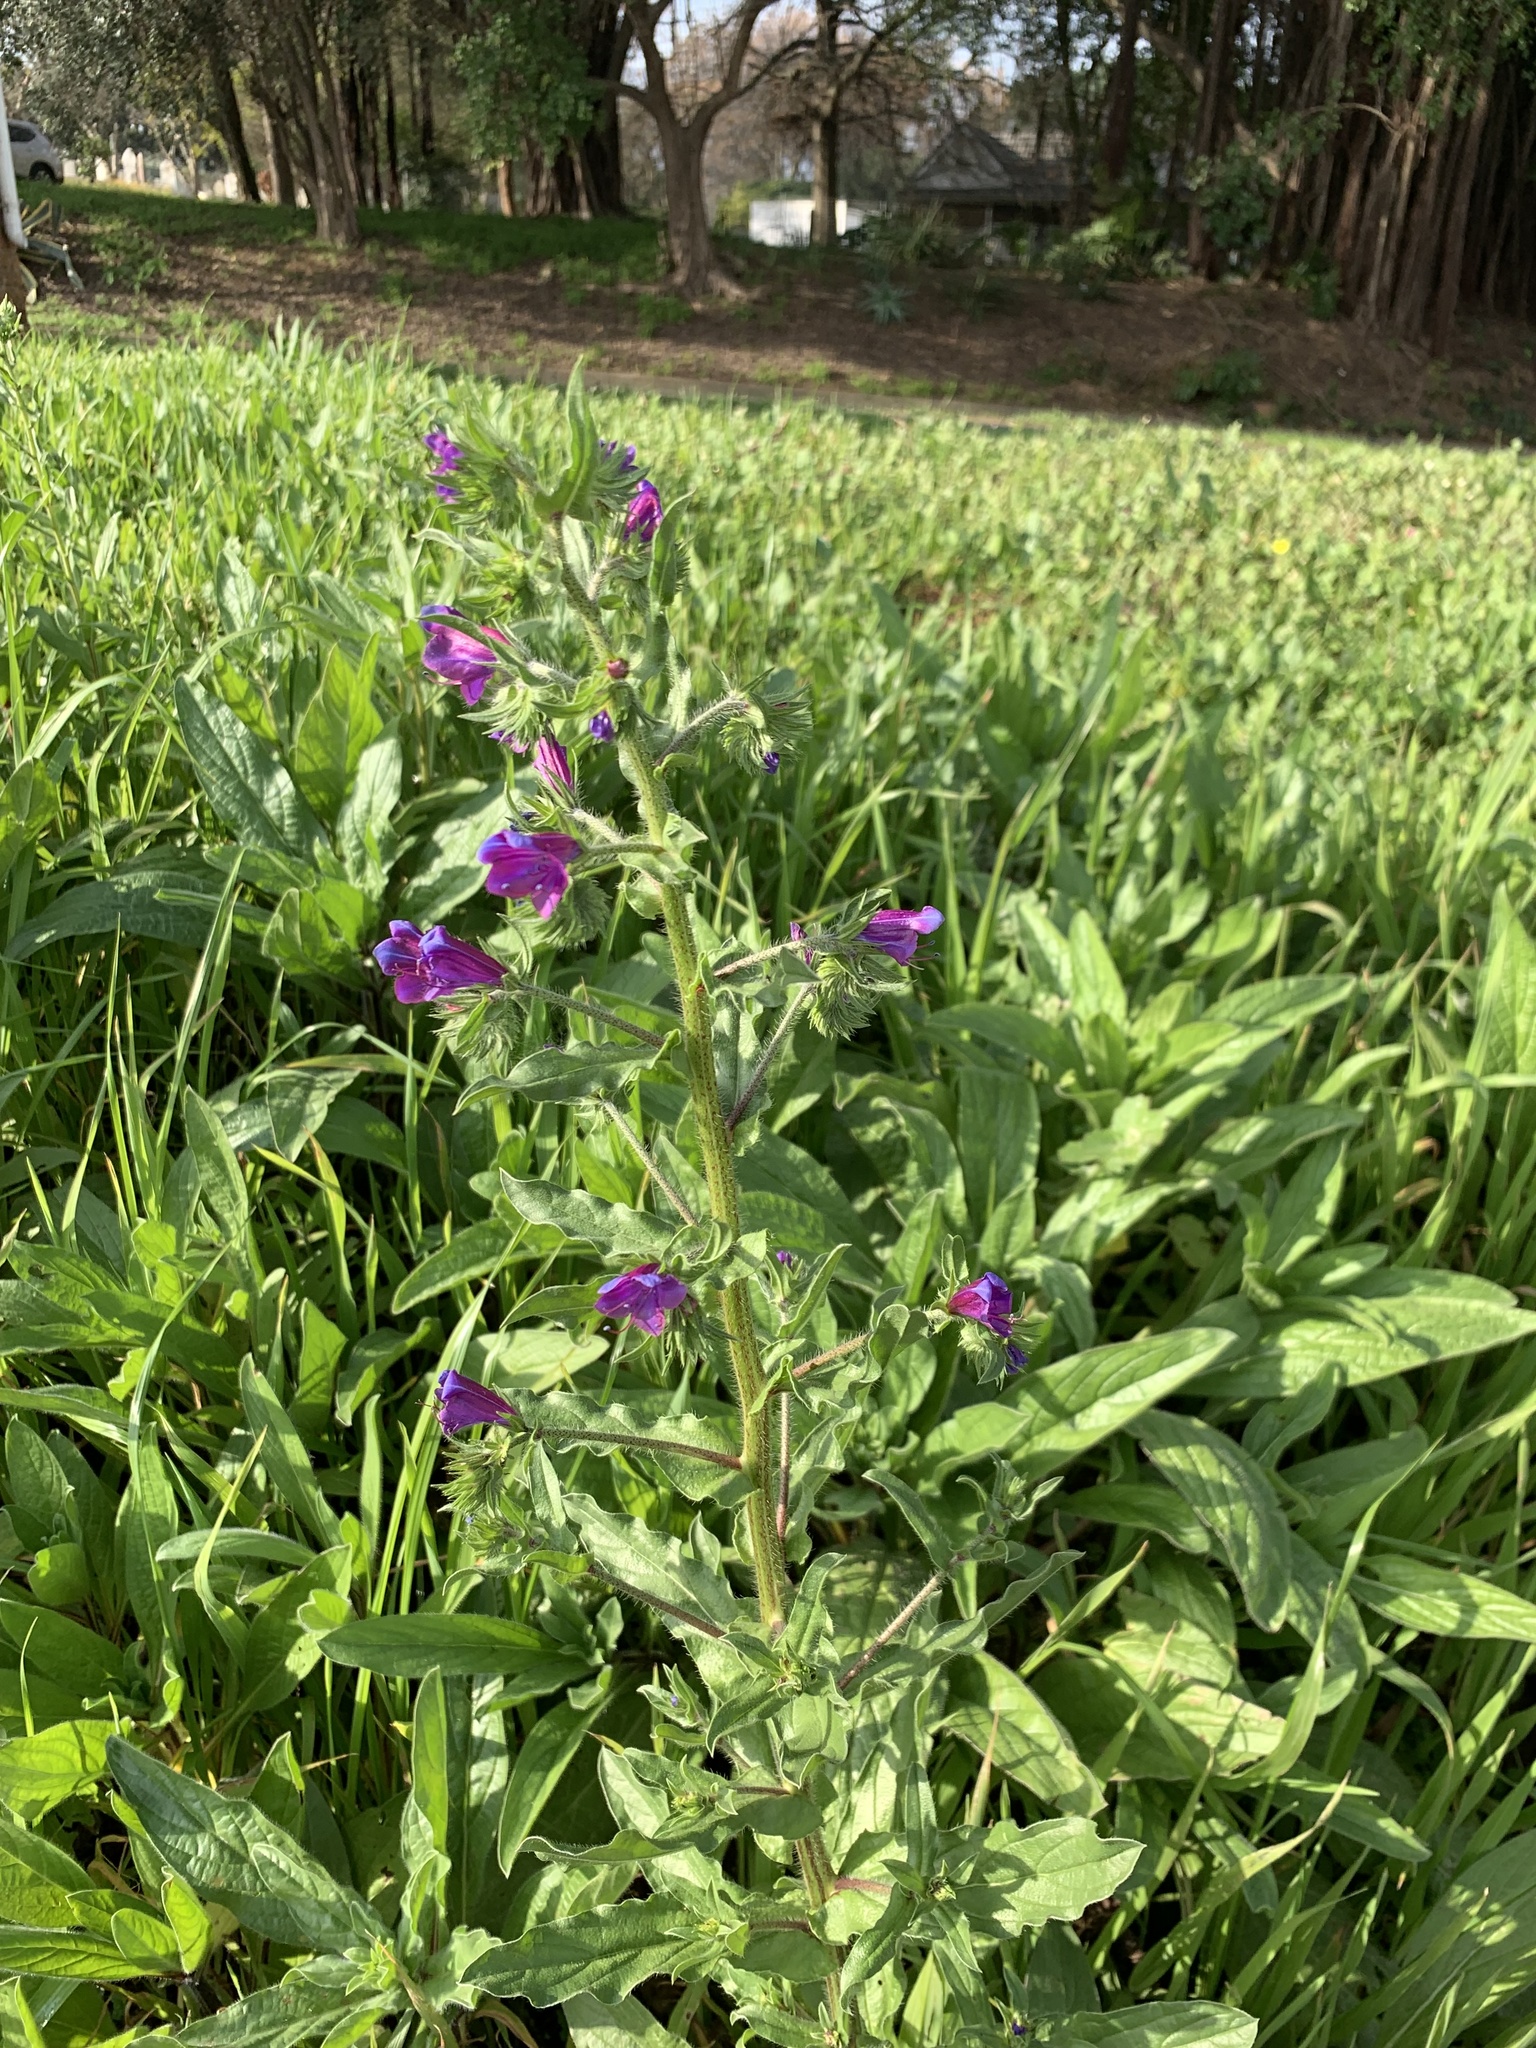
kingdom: Plantae
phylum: Tracheophyta
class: Magnoliopsida
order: Boraginales
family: Boraginaceae
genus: Echium
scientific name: Echium plantagineum
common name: Purple viper's-bugloss
